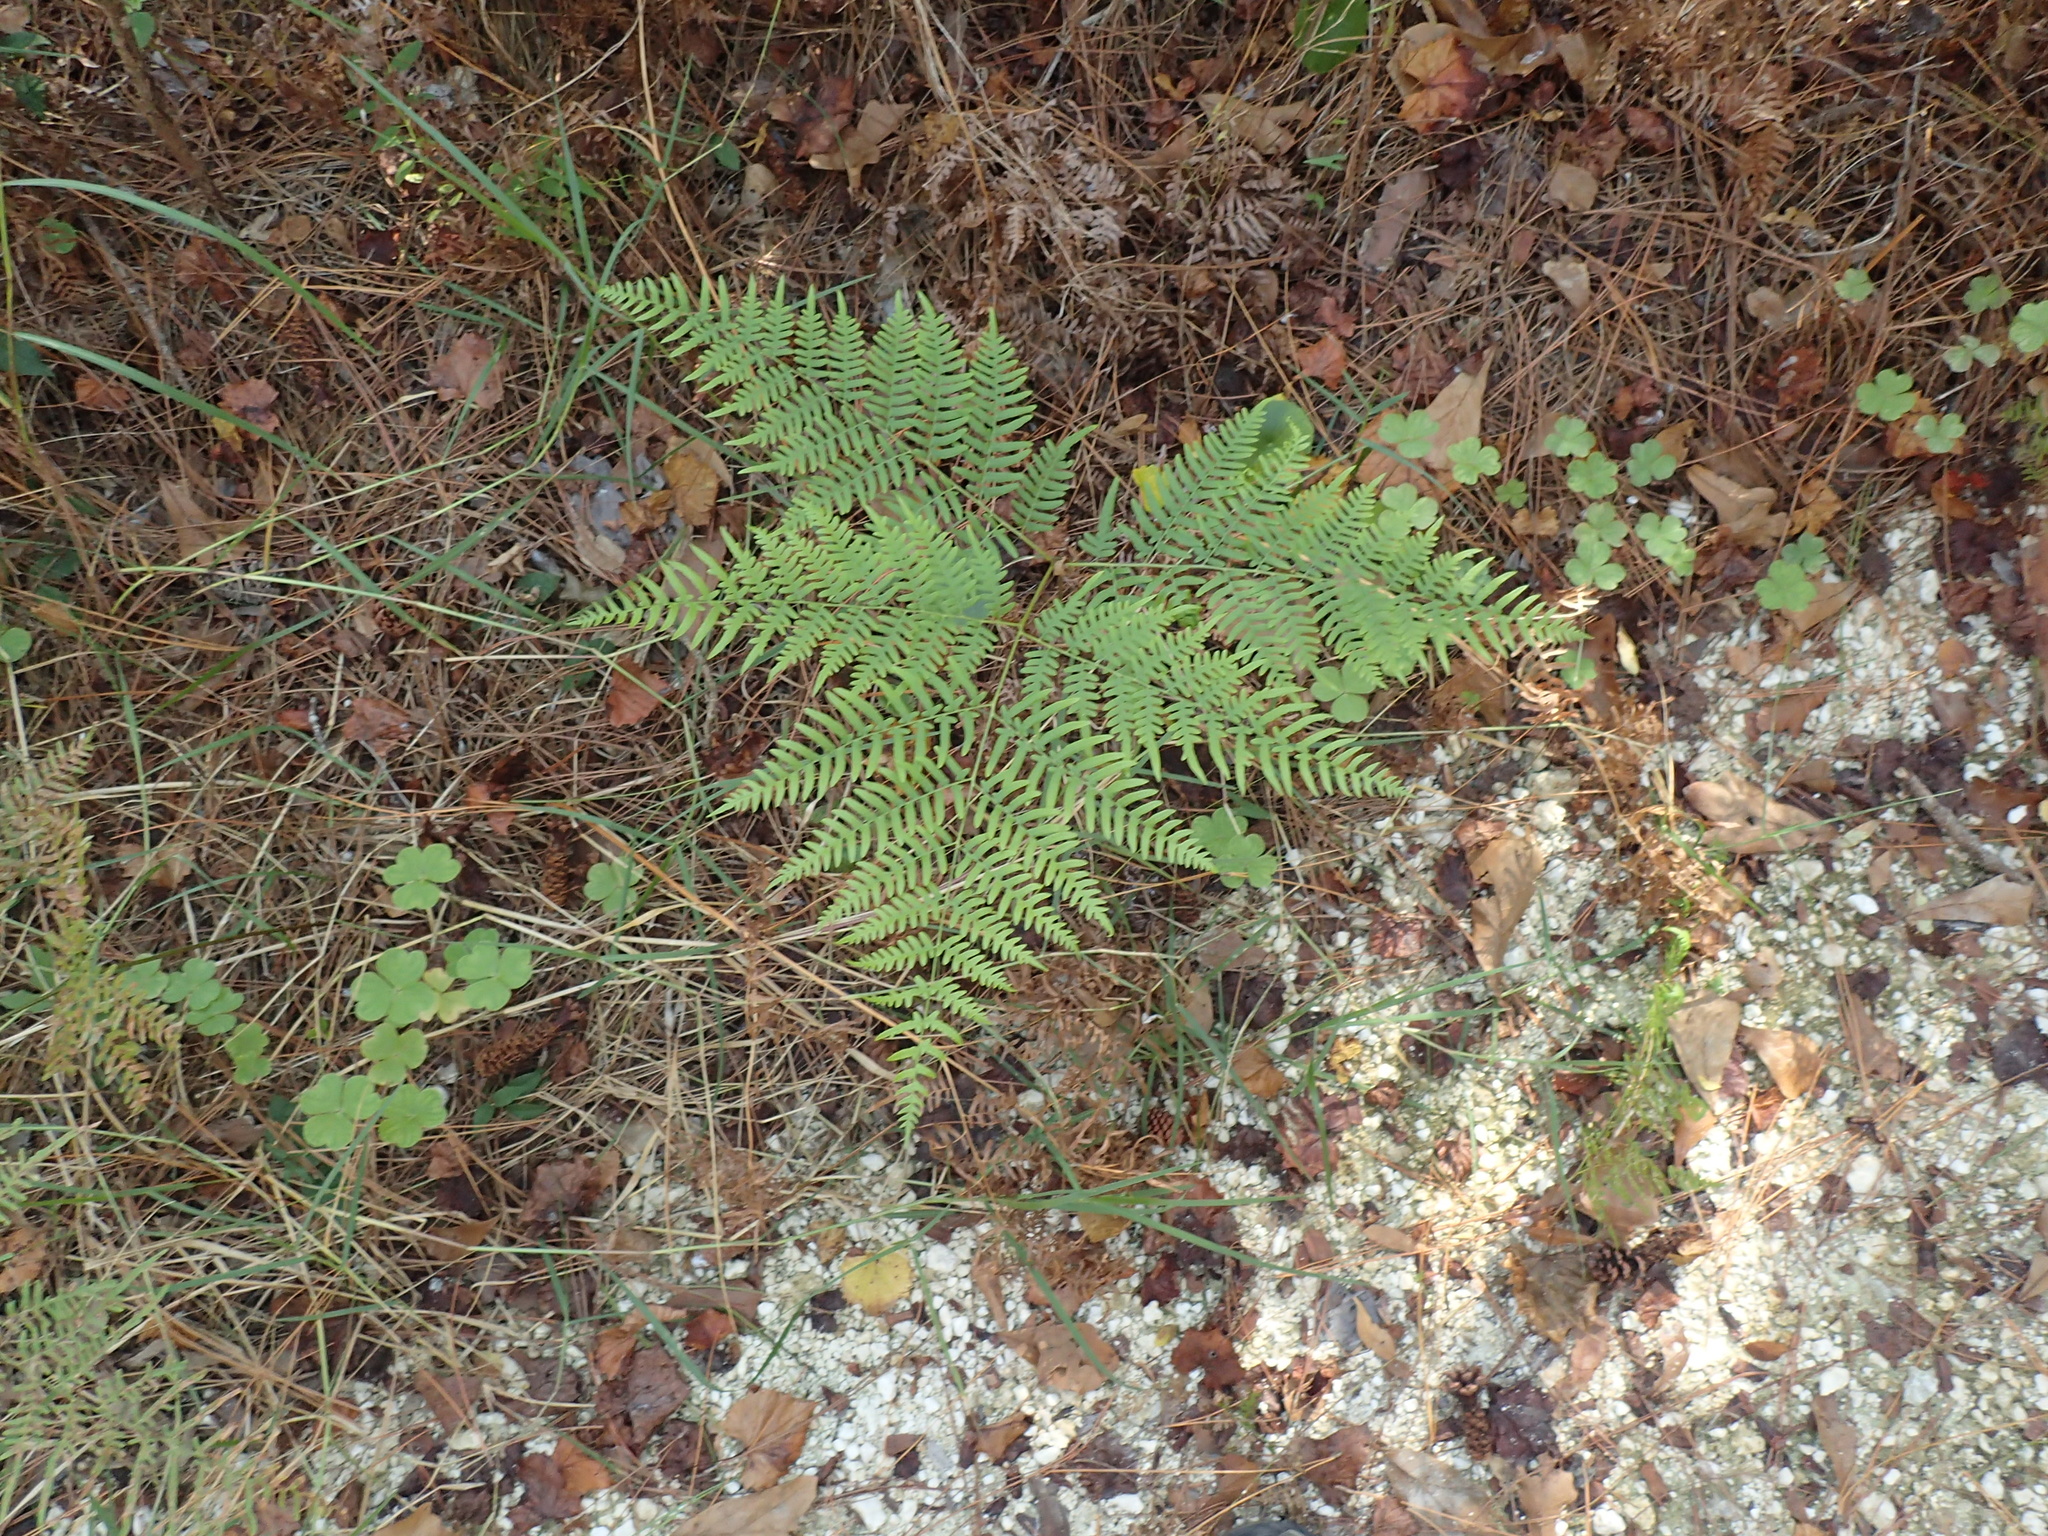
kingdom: Plantae
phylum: Tracheophyta
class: Polypodiopsida
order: Polypodiales
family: Dennstaedtiaceae
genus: Pteridium
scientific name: Pteridium aquilinum
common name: Bracken
